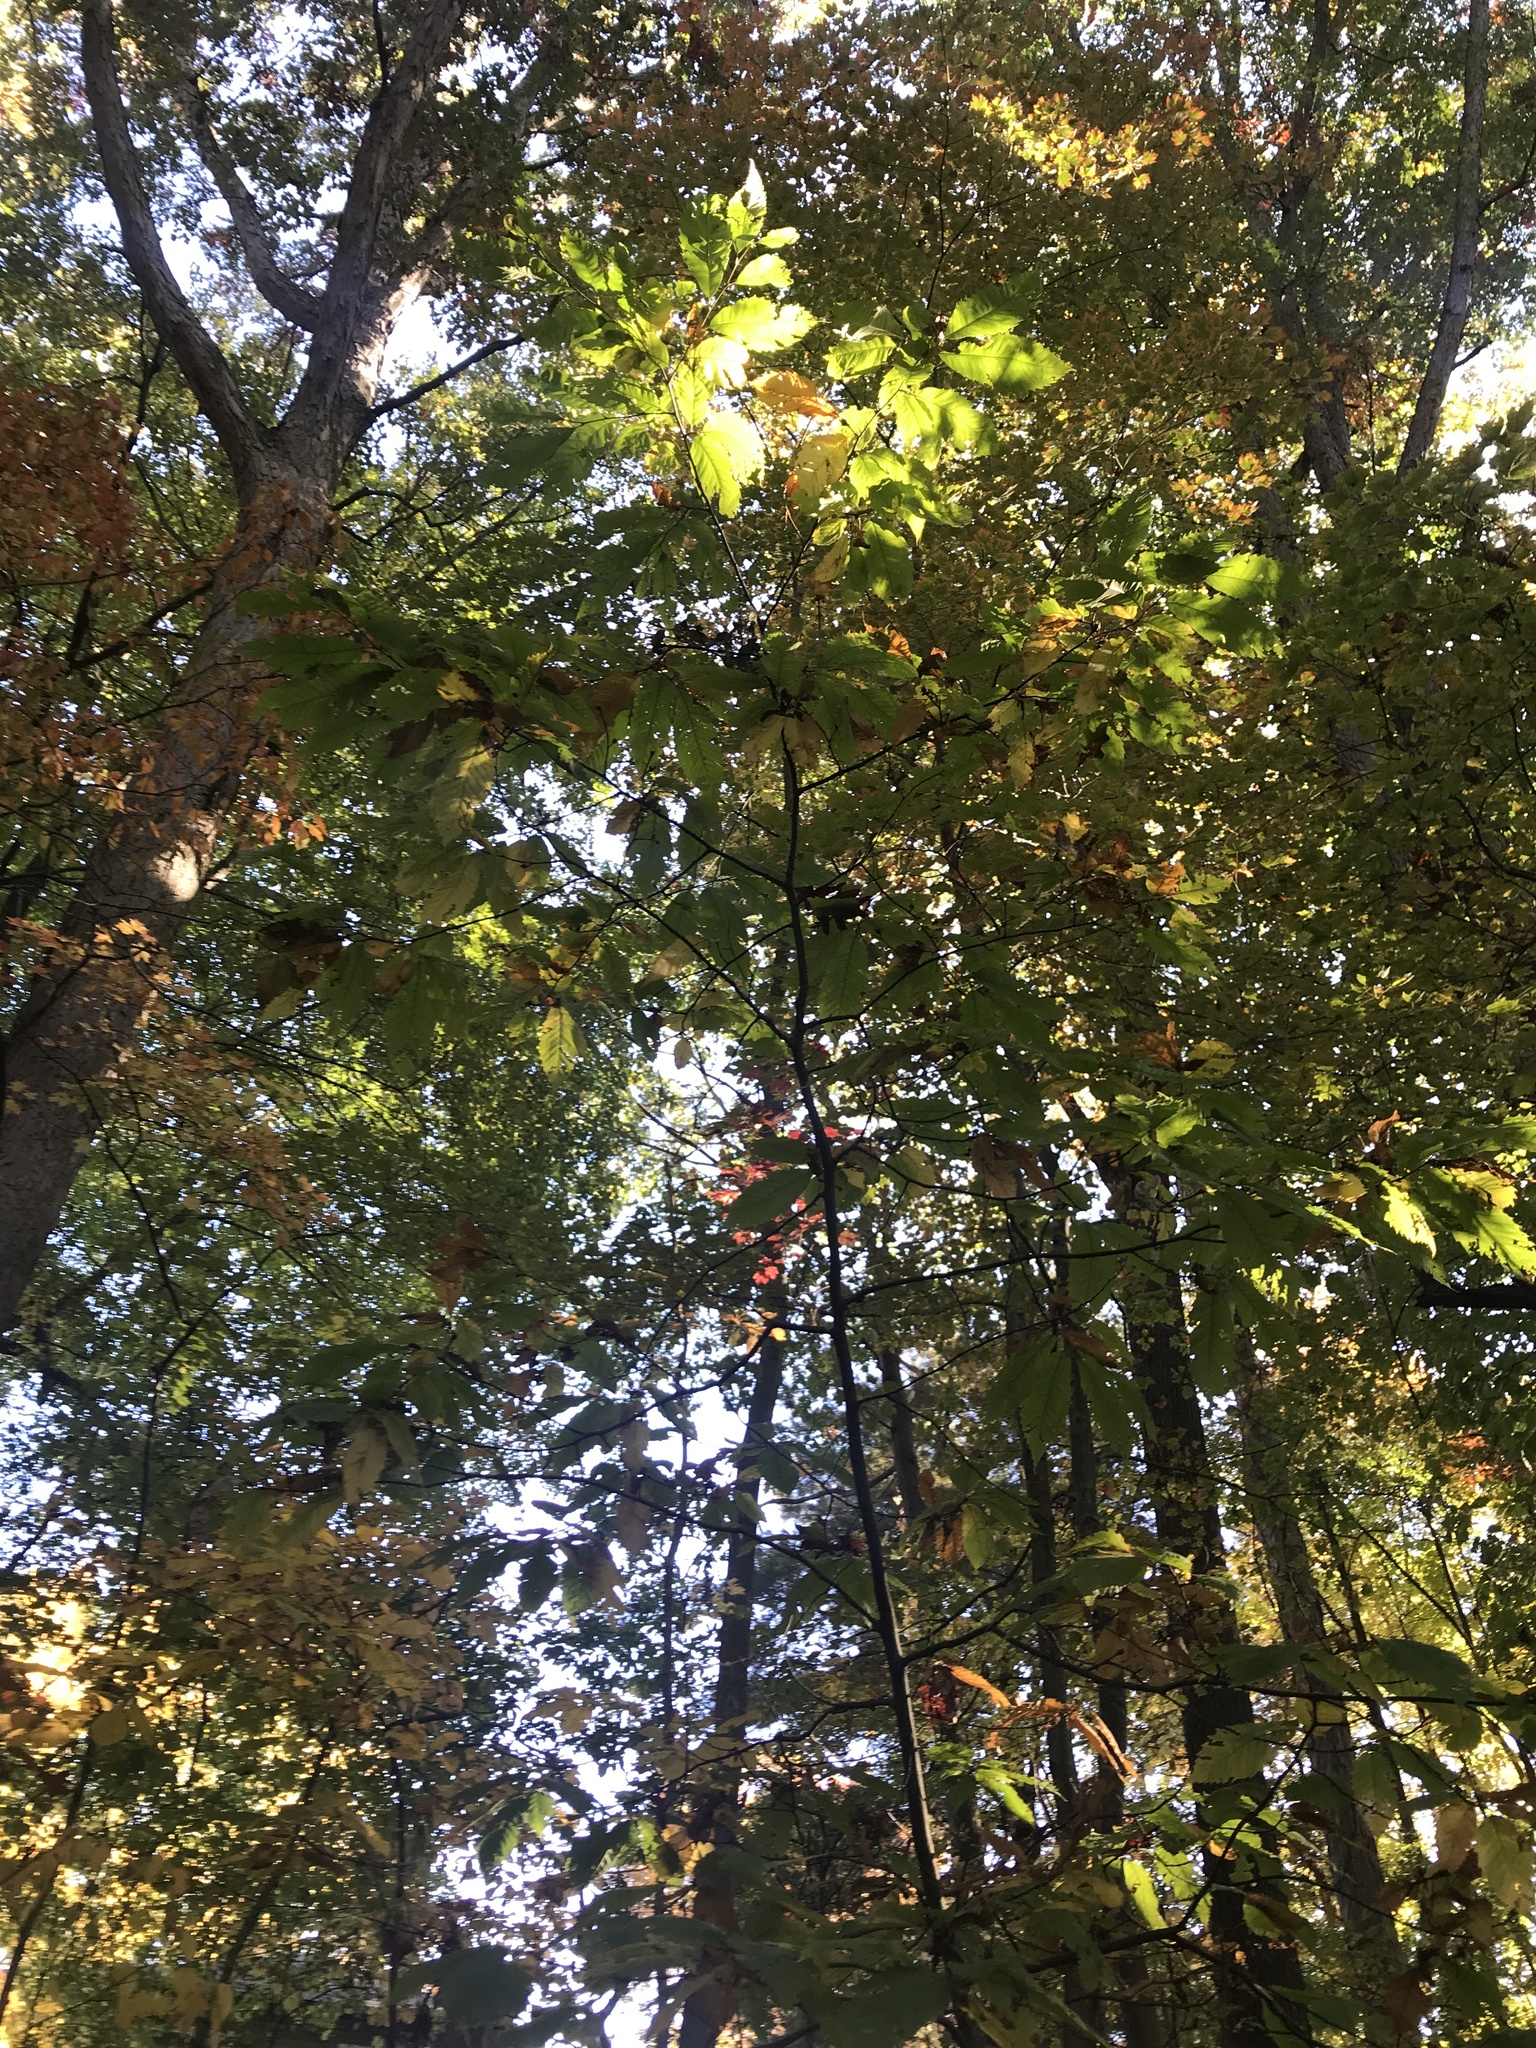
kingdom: Plantae
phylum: Tracheophyta
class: Magnoliopsida
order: Fagales
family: Fagaceae
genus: Castanea
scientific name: Castanea dentata
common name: American chestnut
